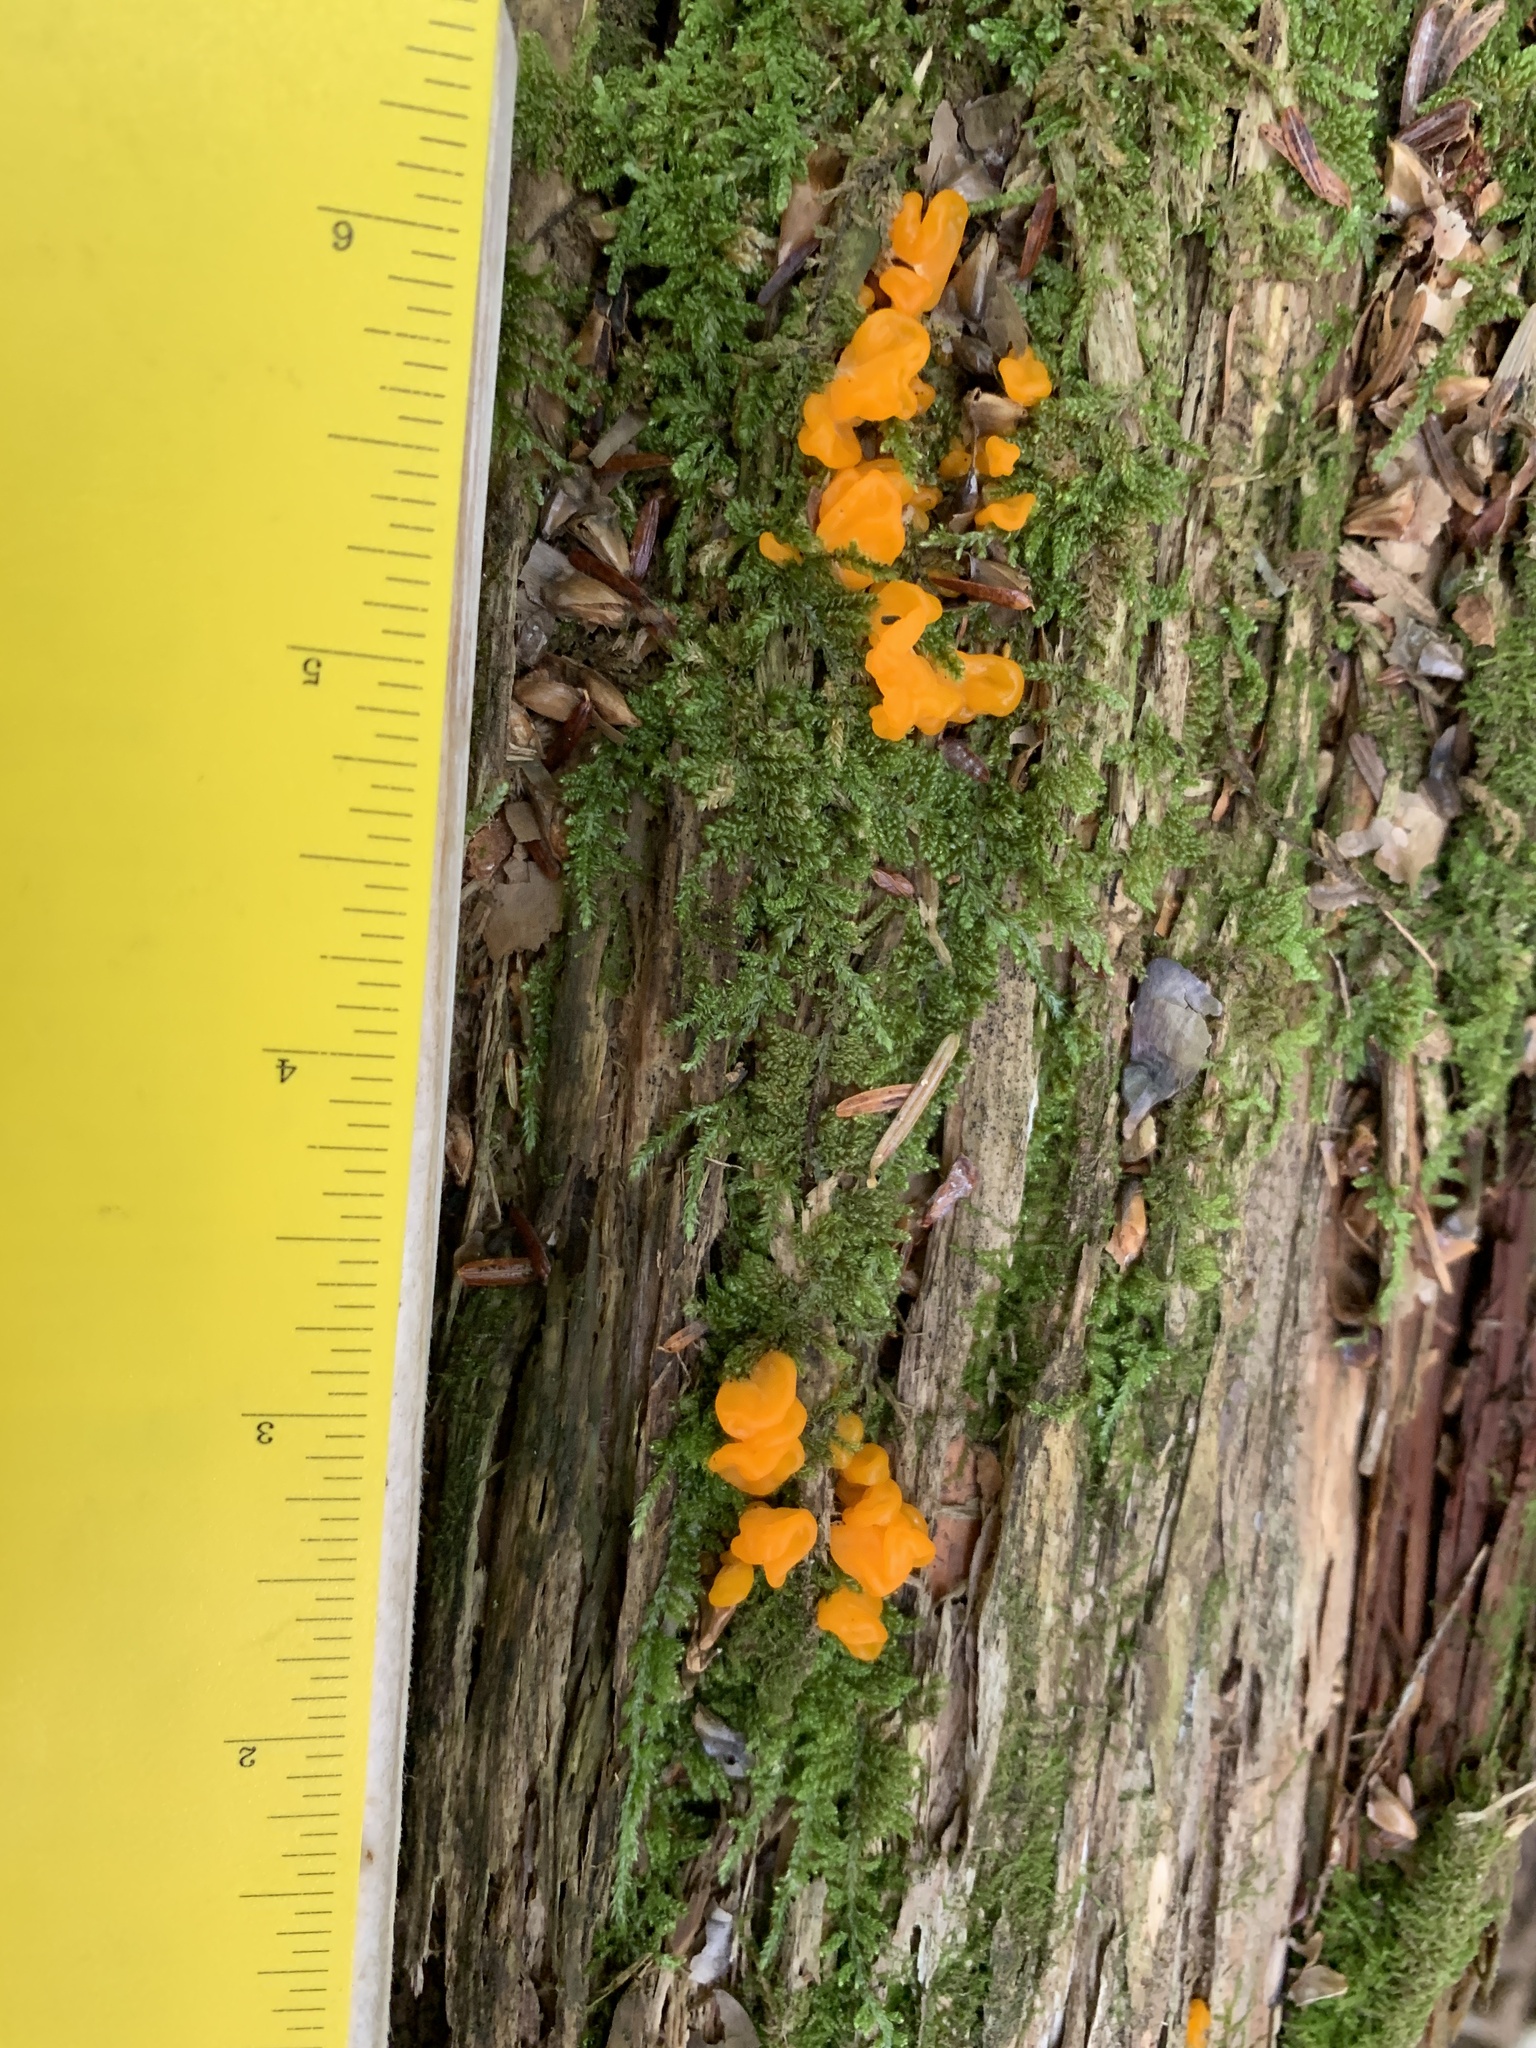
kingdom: Fungi
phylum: Basidiomycota
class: Dacrymycetes
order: Dacrymycetales
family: Dacrymycetaceae
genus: Dacrymyces
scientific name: Dacrymyces chrysospermus
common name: Orange jelly spot
